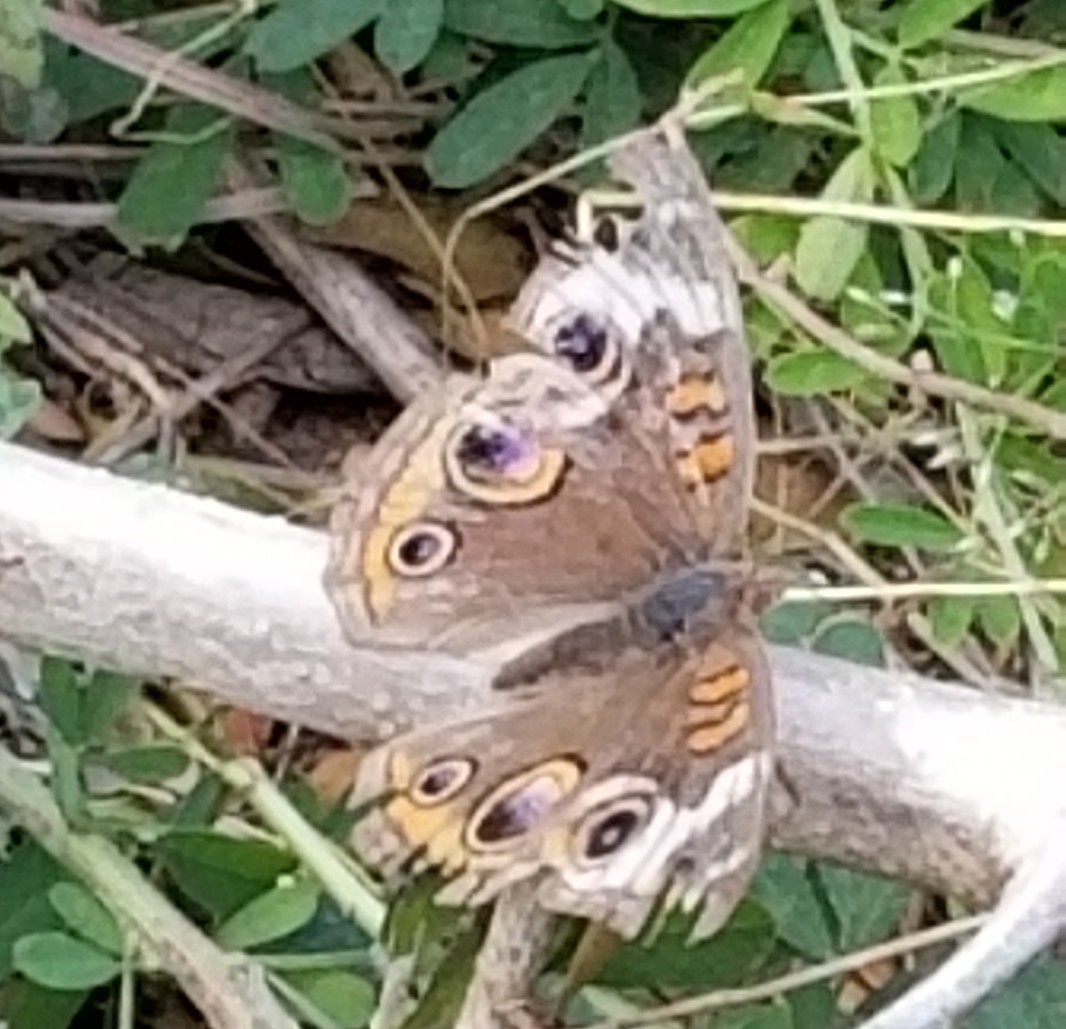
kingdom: Animalia
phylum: Arthropoda
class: Insecta
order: Lepidoptera
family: Nymphalidae
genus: Junonia
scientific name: Junonia coenia
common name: Common buckeye
